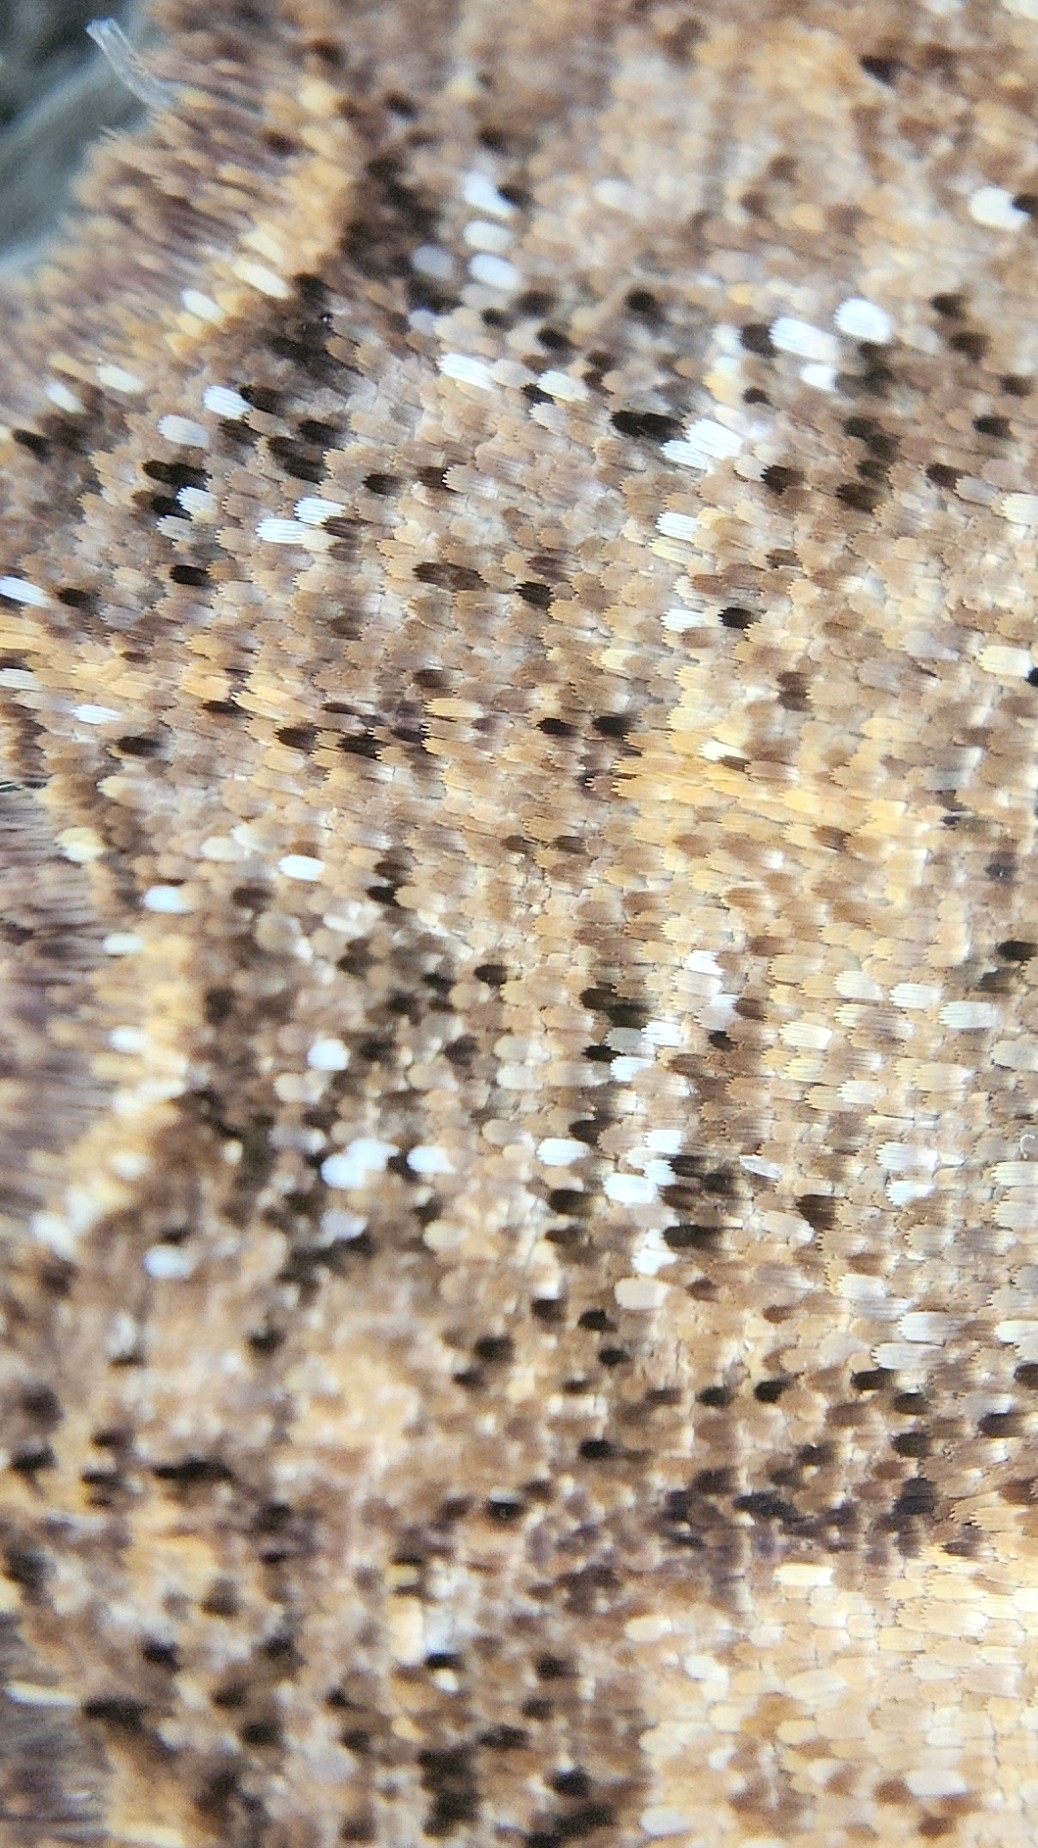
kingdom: Animalia
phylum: Arthropoda
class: Insecta
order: Lepidoptera
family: Geometridae
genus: Gellonia
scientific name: Gellonia dejectaria
